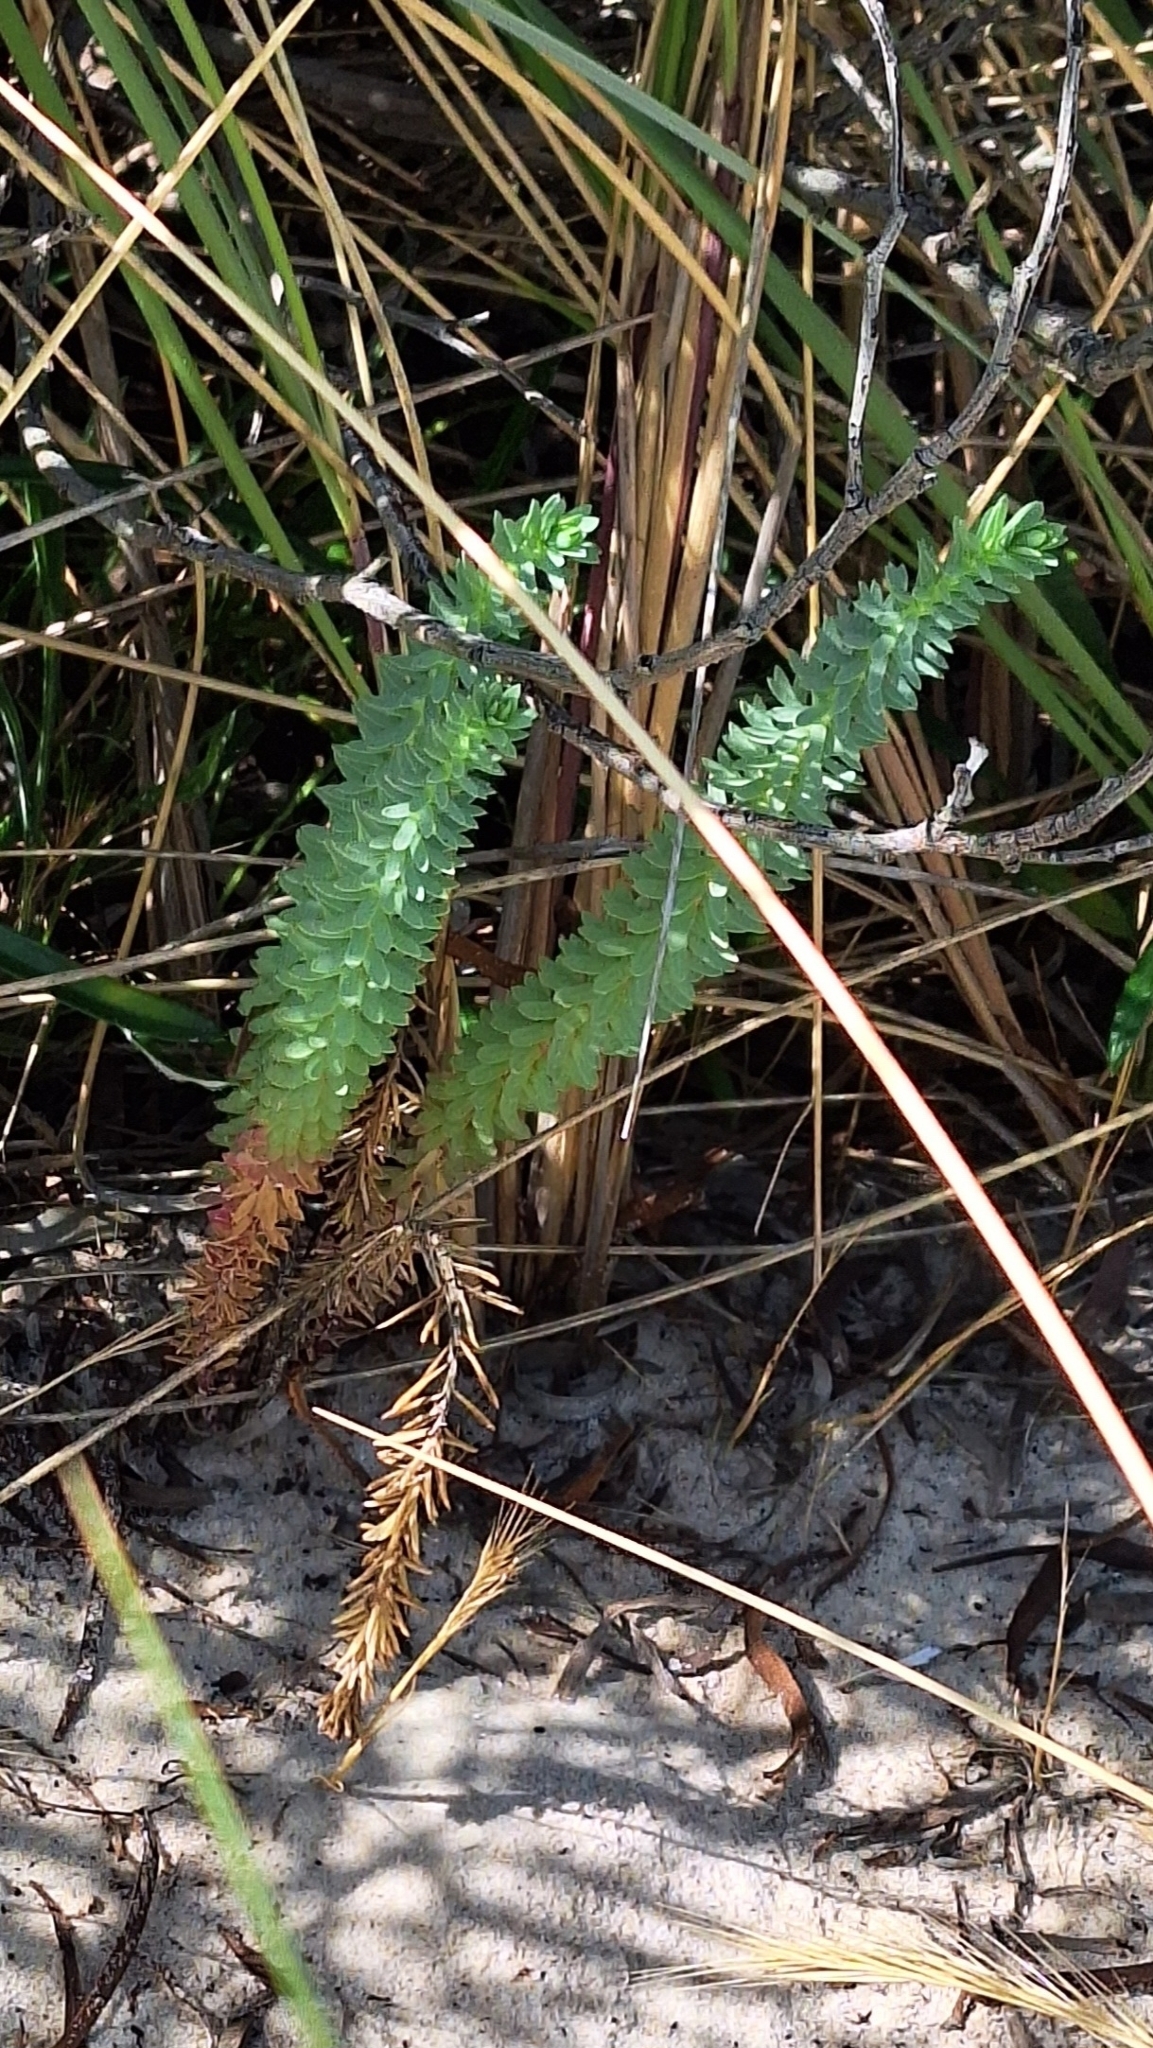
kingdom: Plantae
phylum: Tracheophyta
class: Magnoliopsida
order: Malpighiales
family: Euphorbiaceae
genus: Euphorbia
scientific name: Euphorbia paralias
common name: Sea spurge
